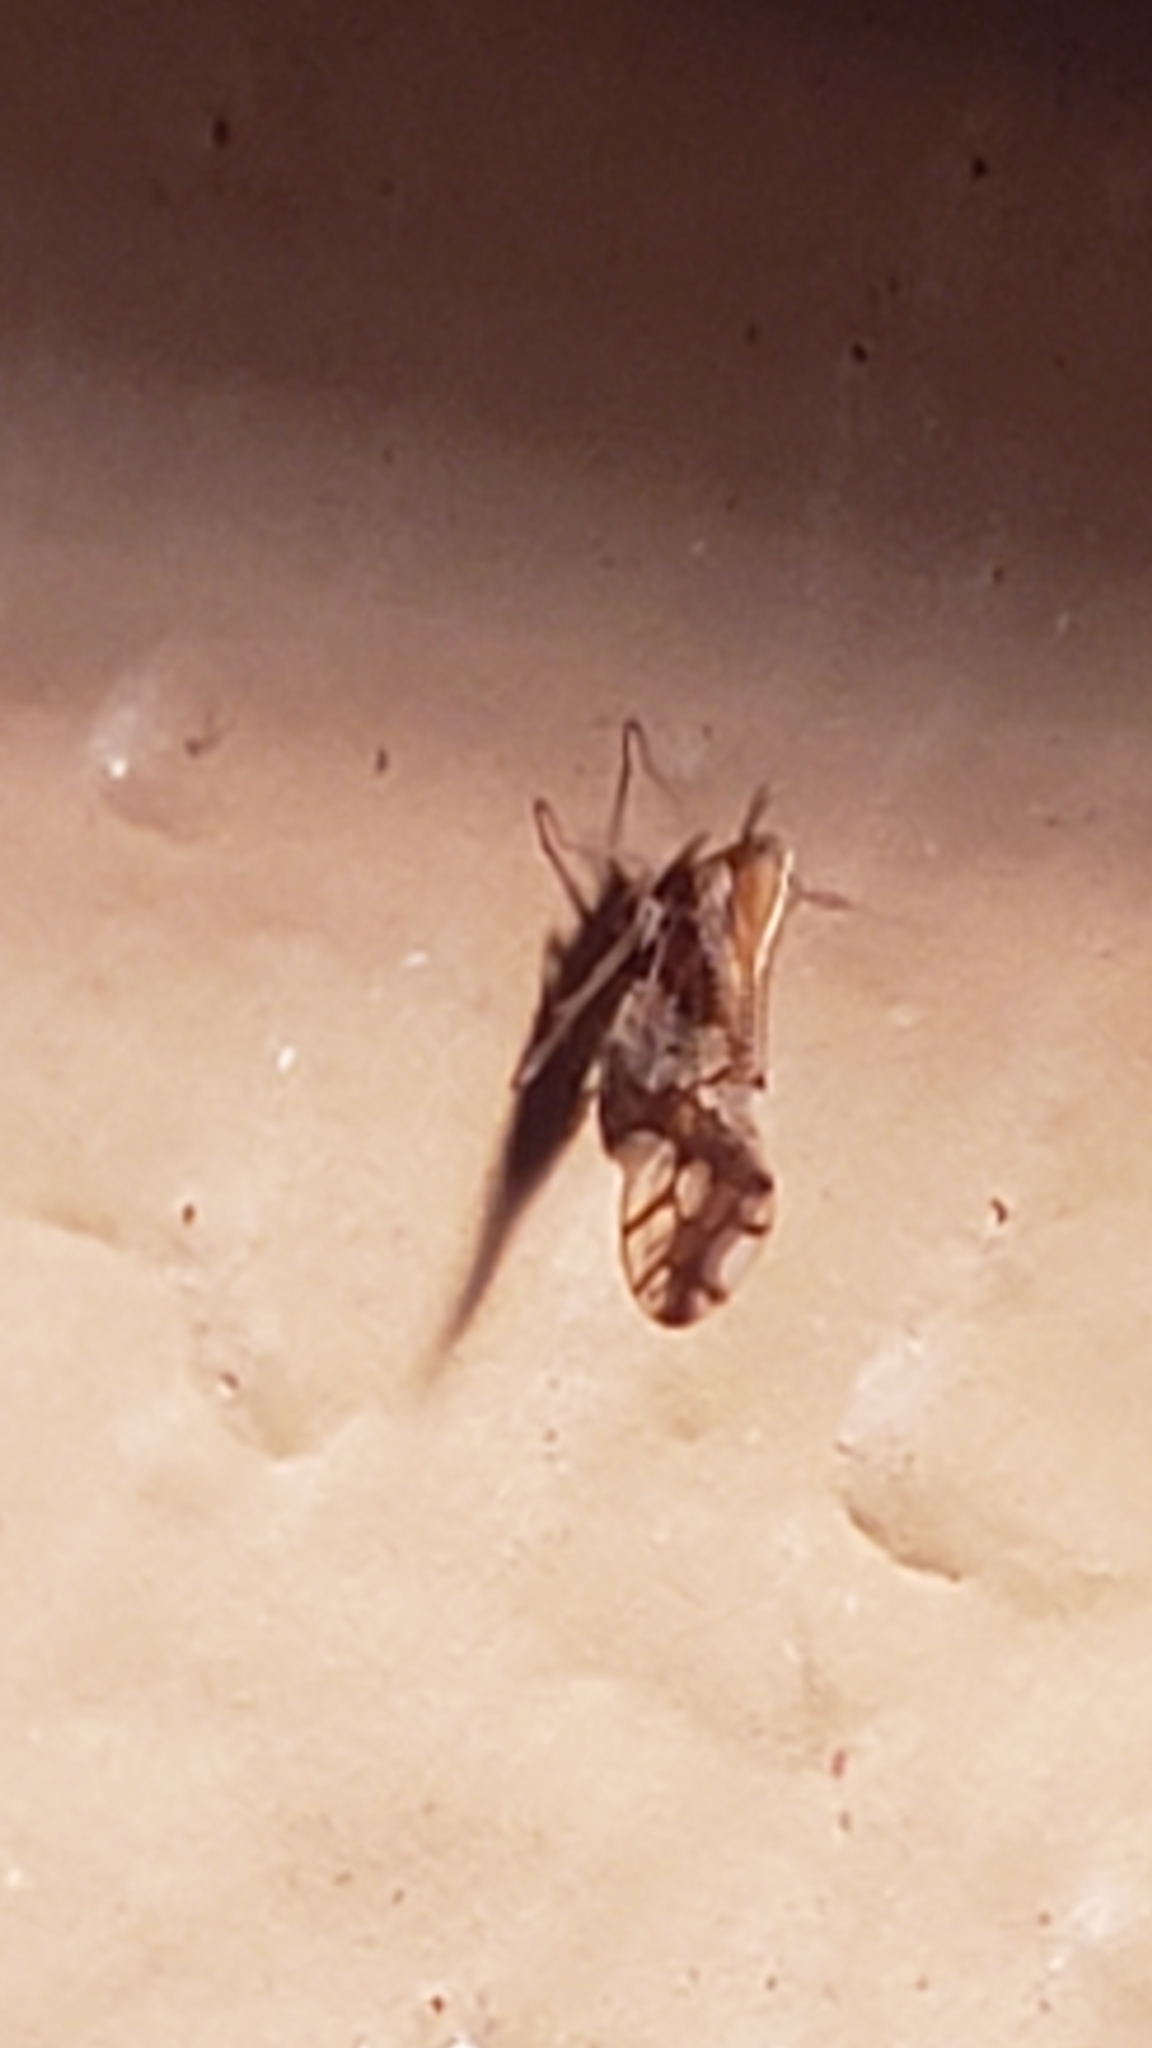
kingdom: Animalia
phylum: Arthropoda
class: Insecta
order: Hemiptera
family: Delphacidae
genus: Liburniella
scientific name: Liburniella ornata
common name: Ornate planthopper
